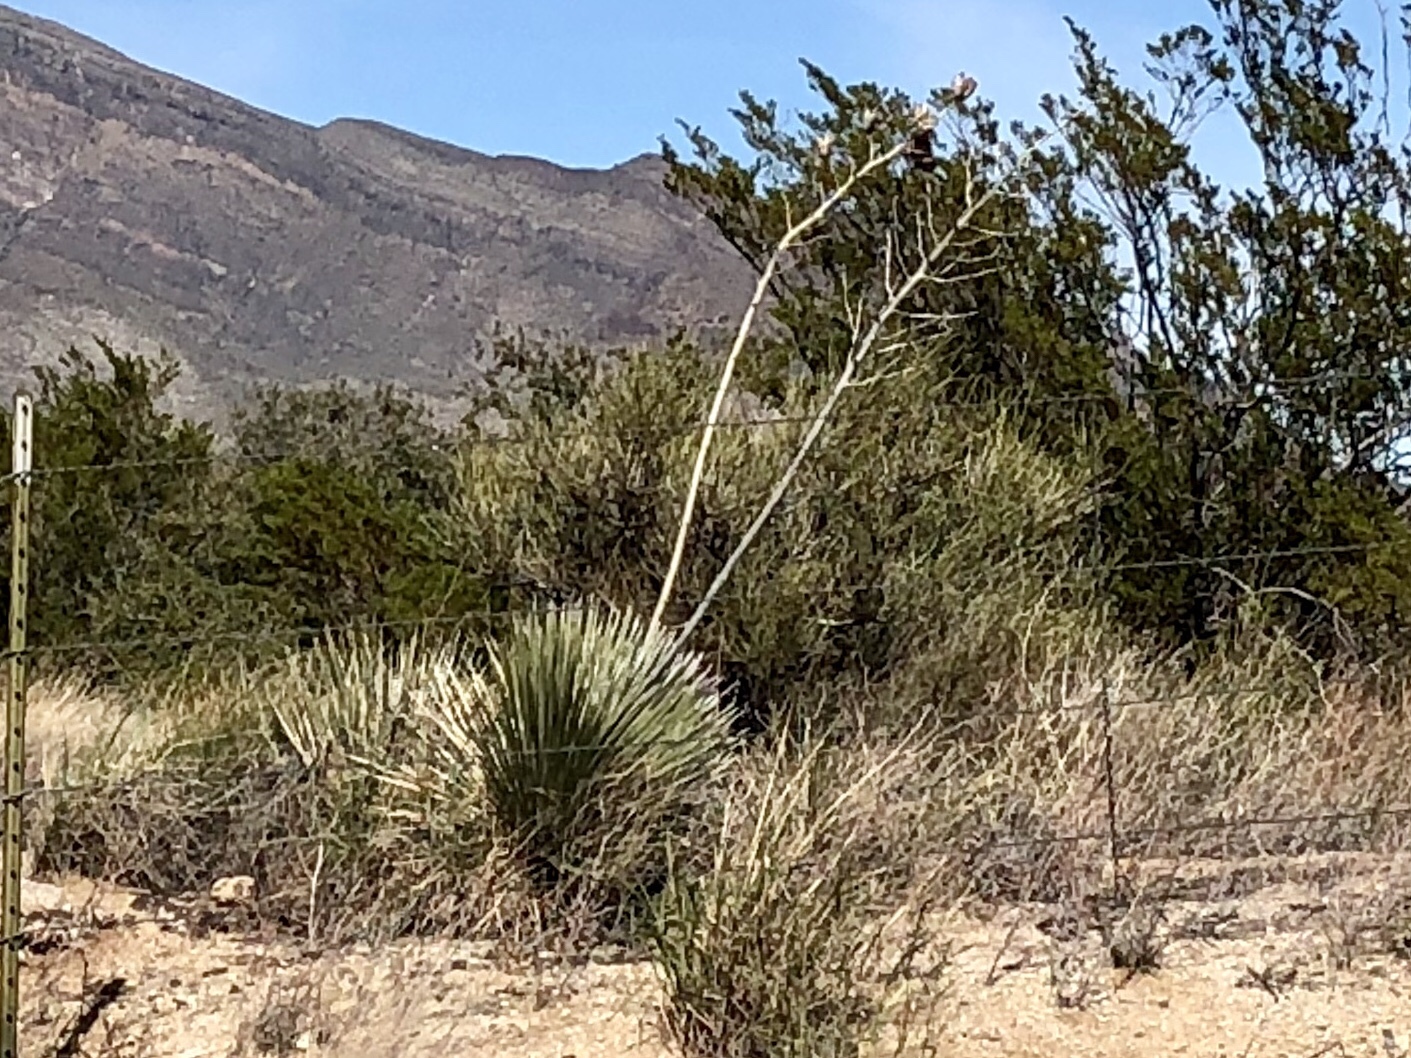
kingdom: Plantae
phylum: Tracheophyta
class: Liliopsida
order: Asparagales
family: Asparagaceae
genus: Yucca
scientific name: Yucca elata
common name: Palmella
